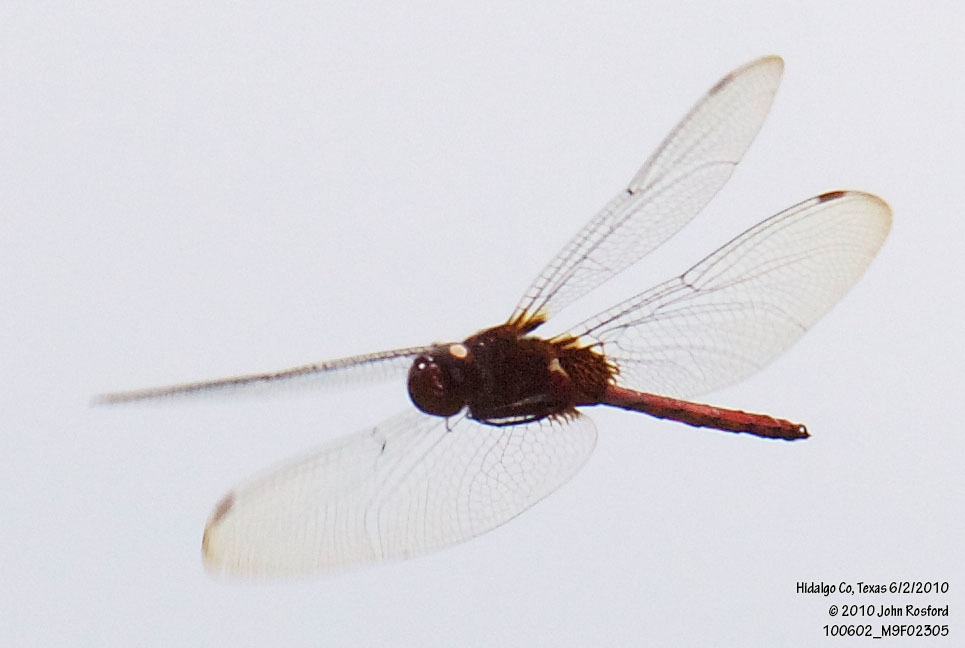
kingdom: Animalia
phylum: Arthropoda
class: Insecta
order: Odonata
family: Libellulidae
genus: Tauriphila
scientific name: Tauriphila argo
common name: Arch-tipped glider
